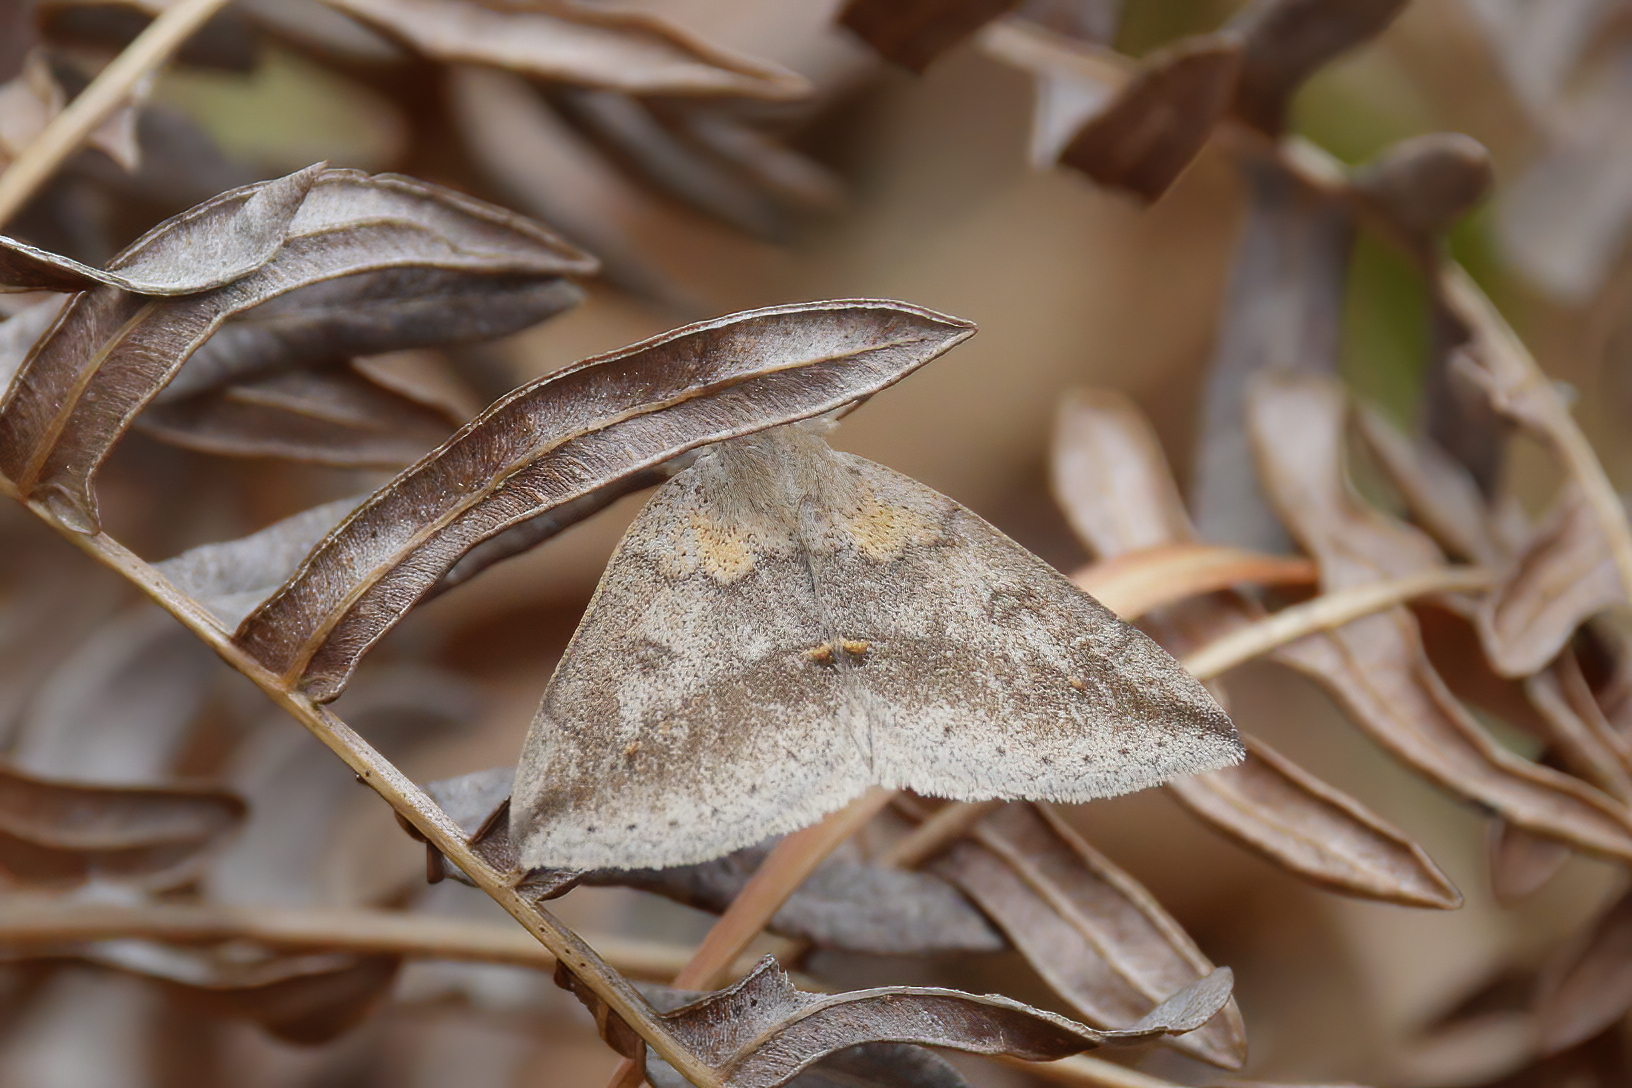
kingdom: Animalia
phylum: Arthropoda
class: Insecta
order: Lepidoptera
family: Erebidae
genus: Argyrostrotis
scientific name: Argyrostrotis flavistriaria
